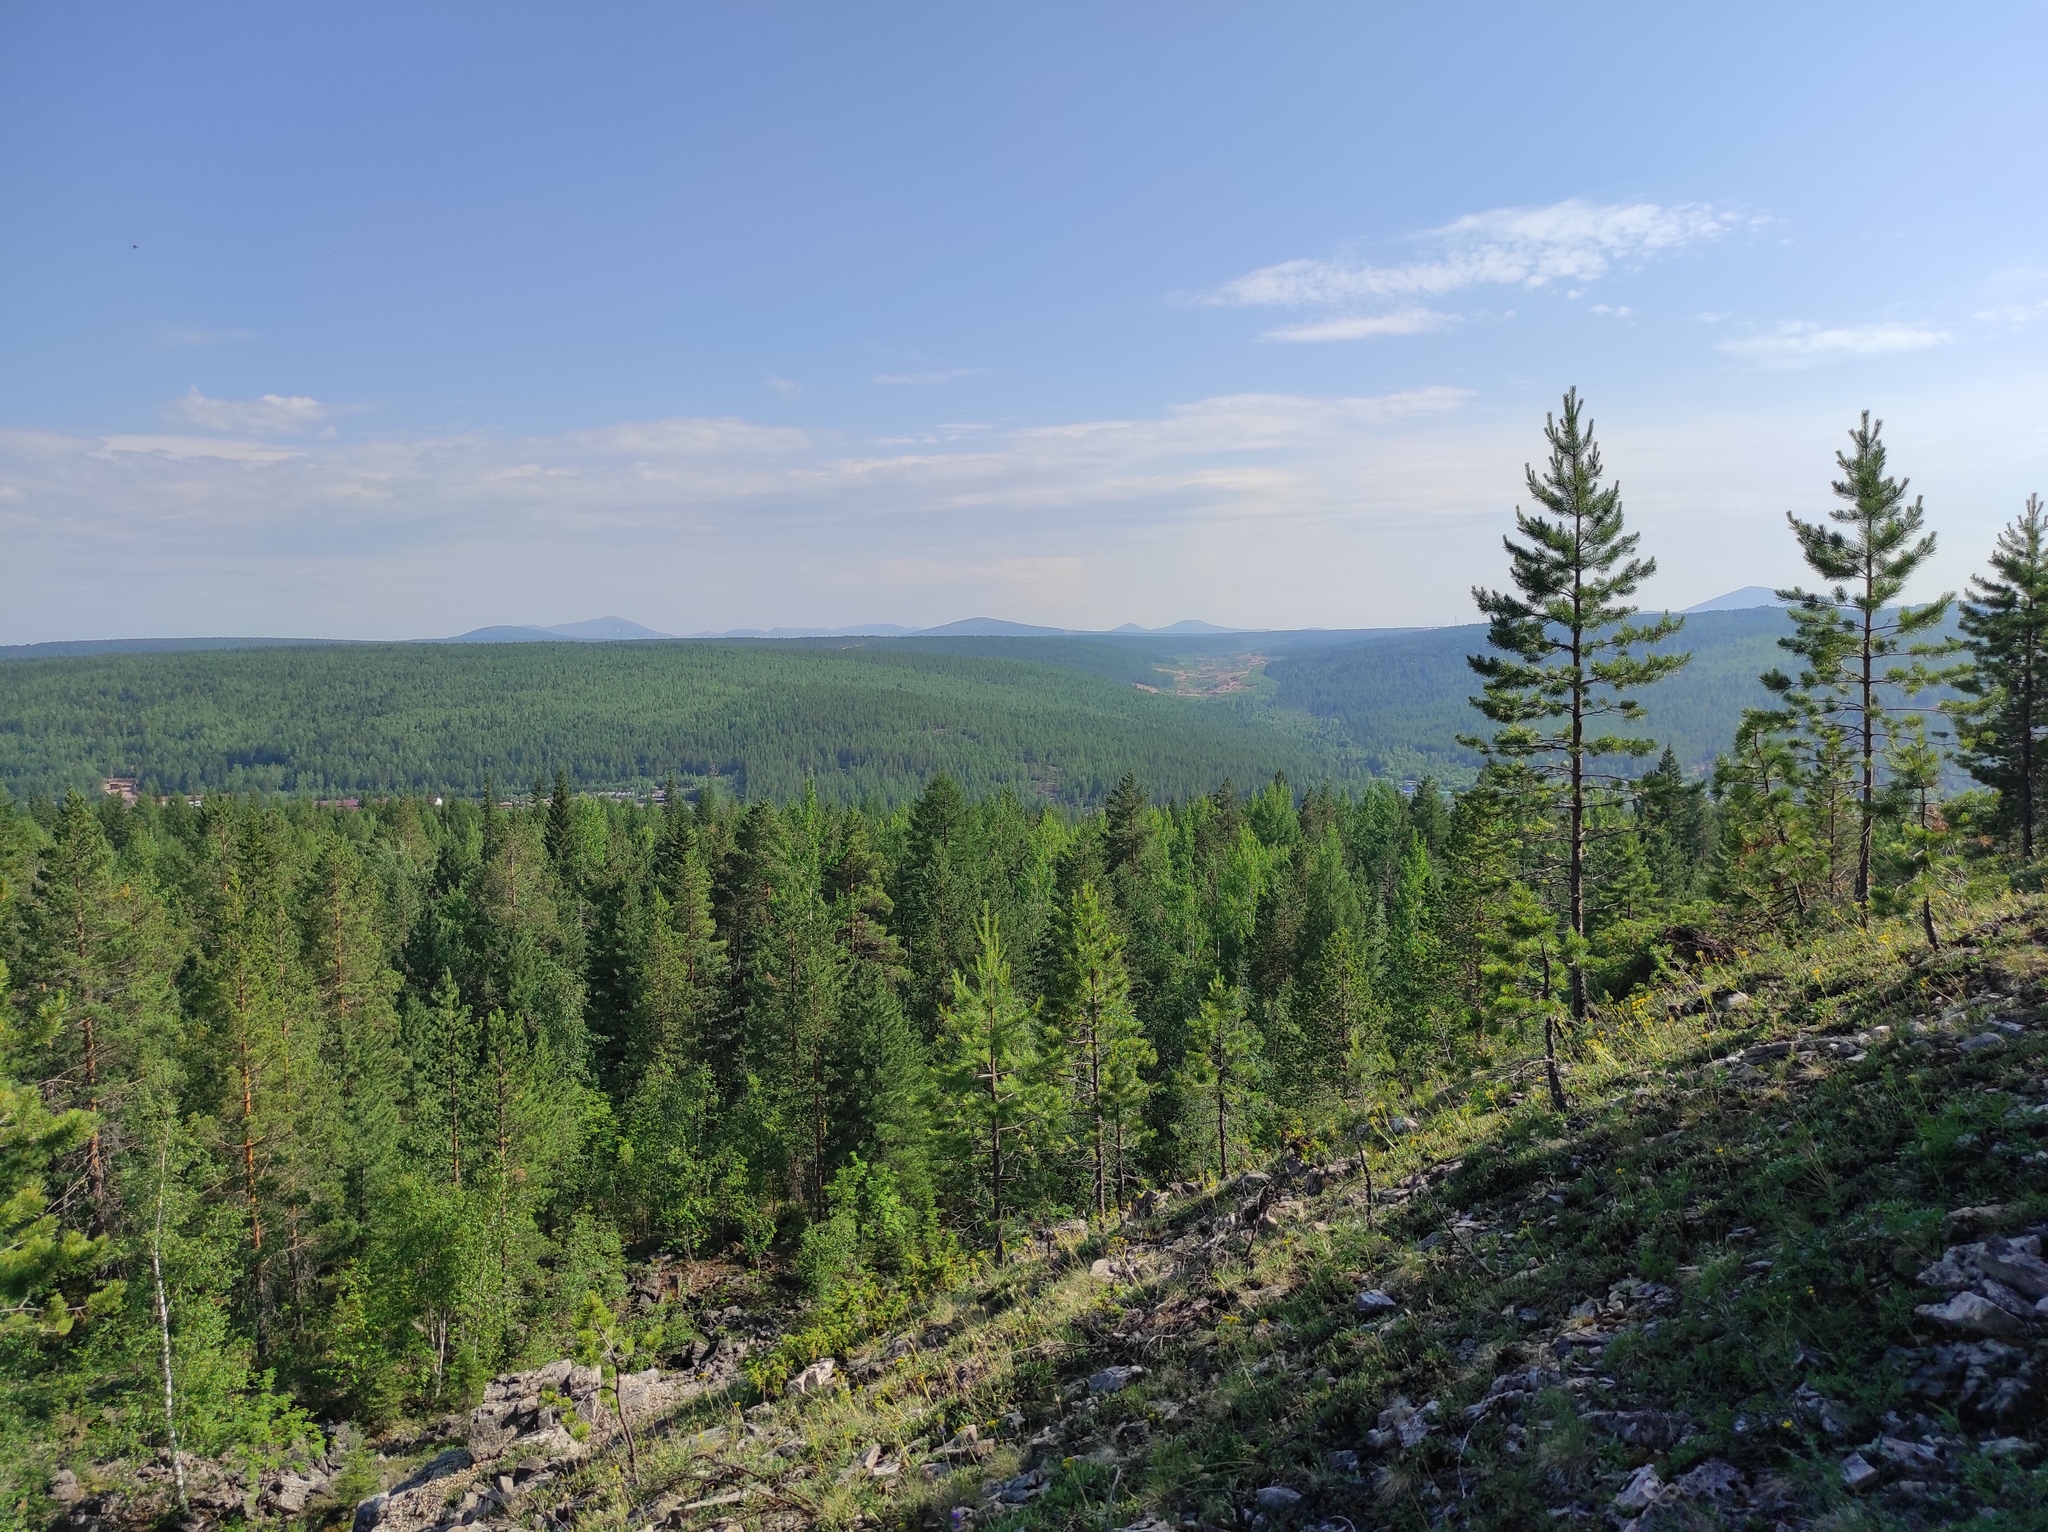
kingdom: Plantae
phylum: Tracheophyta
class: Pinopsida
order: Pinales
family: Pinaceae
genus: Pinus
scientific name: Pinus sylvestris
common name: Scots pine
